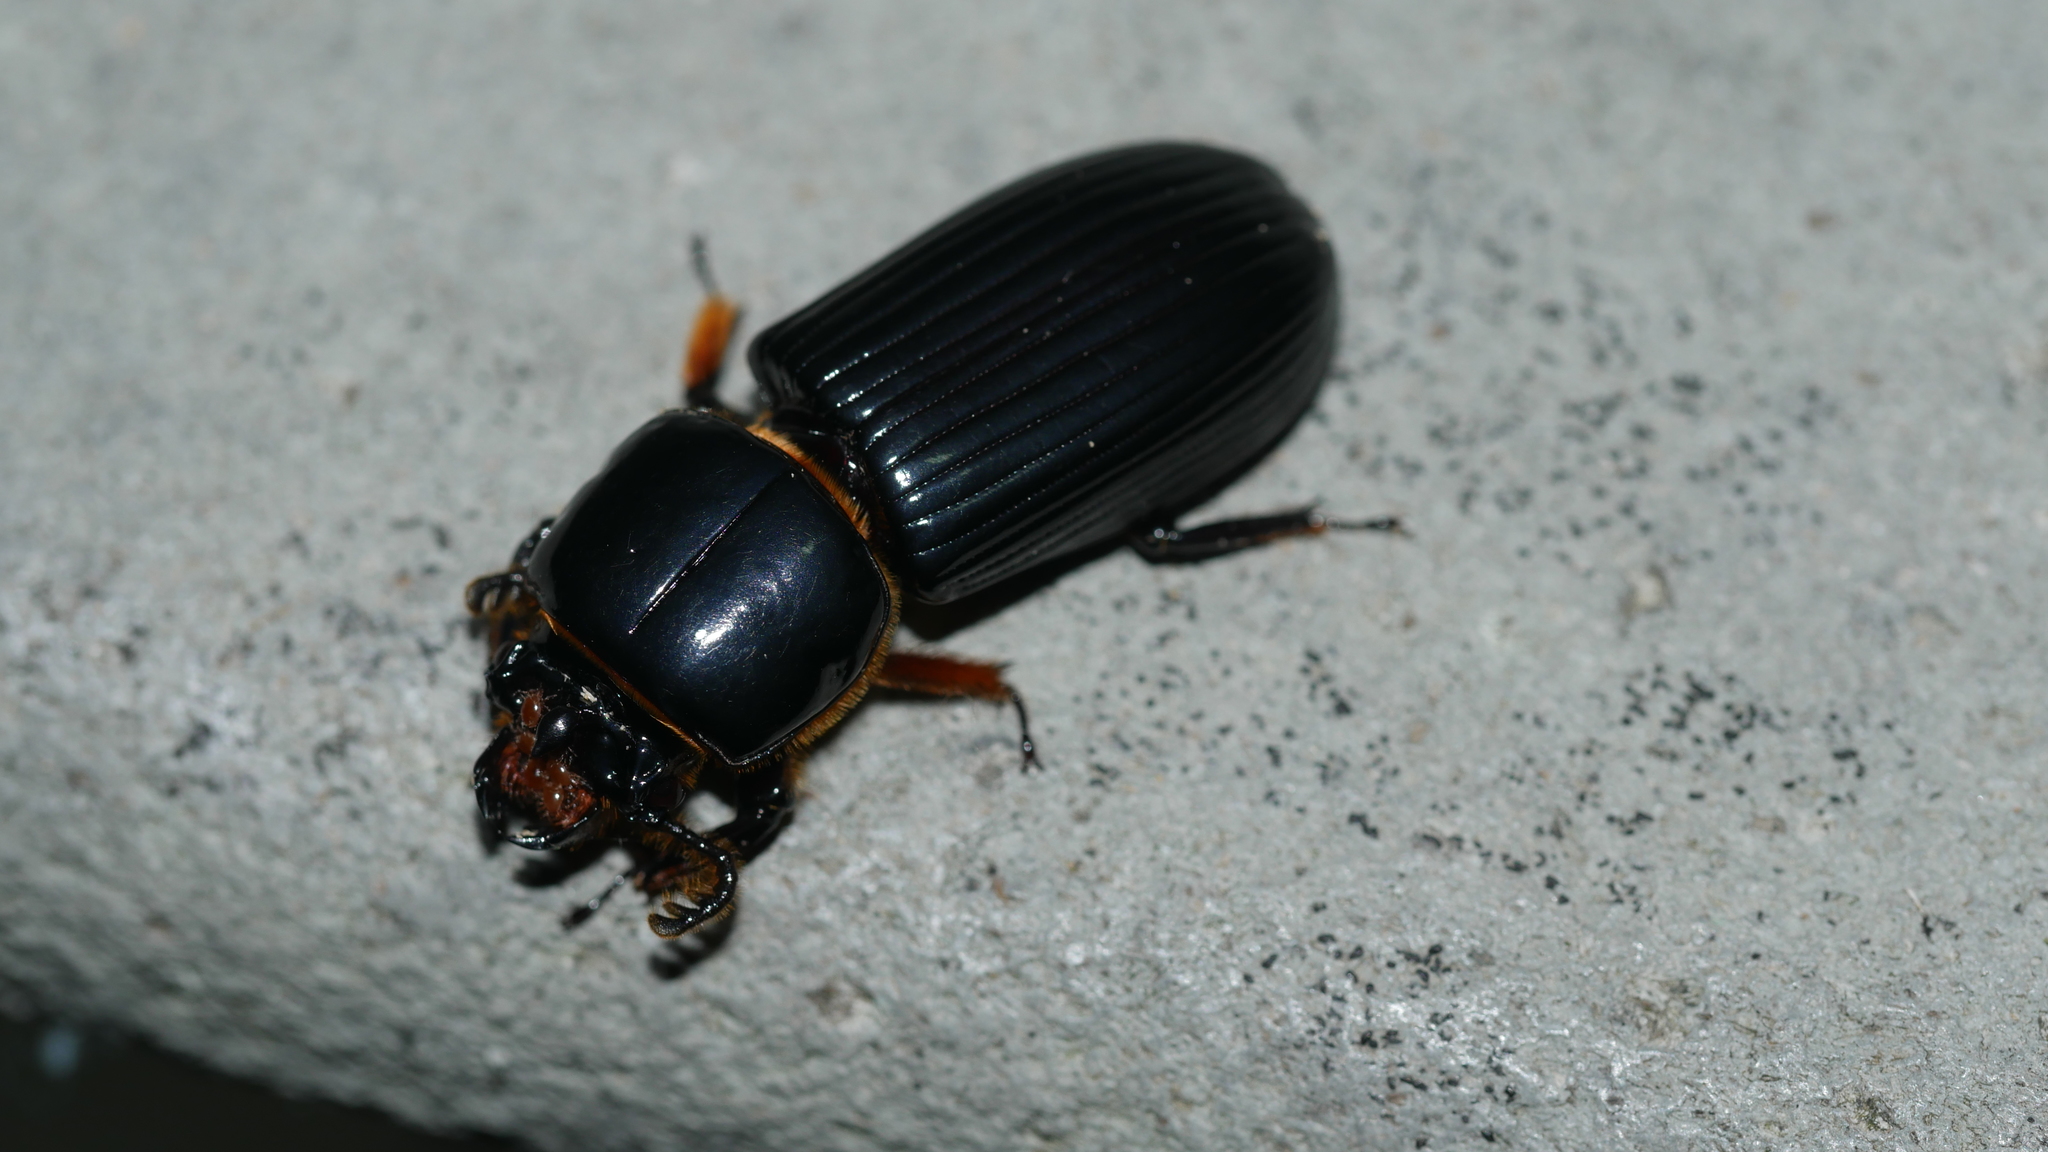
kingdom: Animalia
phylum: Arthropoda
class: Insecta
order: Coleoptera
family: Passalidae
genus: Odontotaenius
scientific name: Odontotaenius disjunctus
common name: Patent leather beetle
